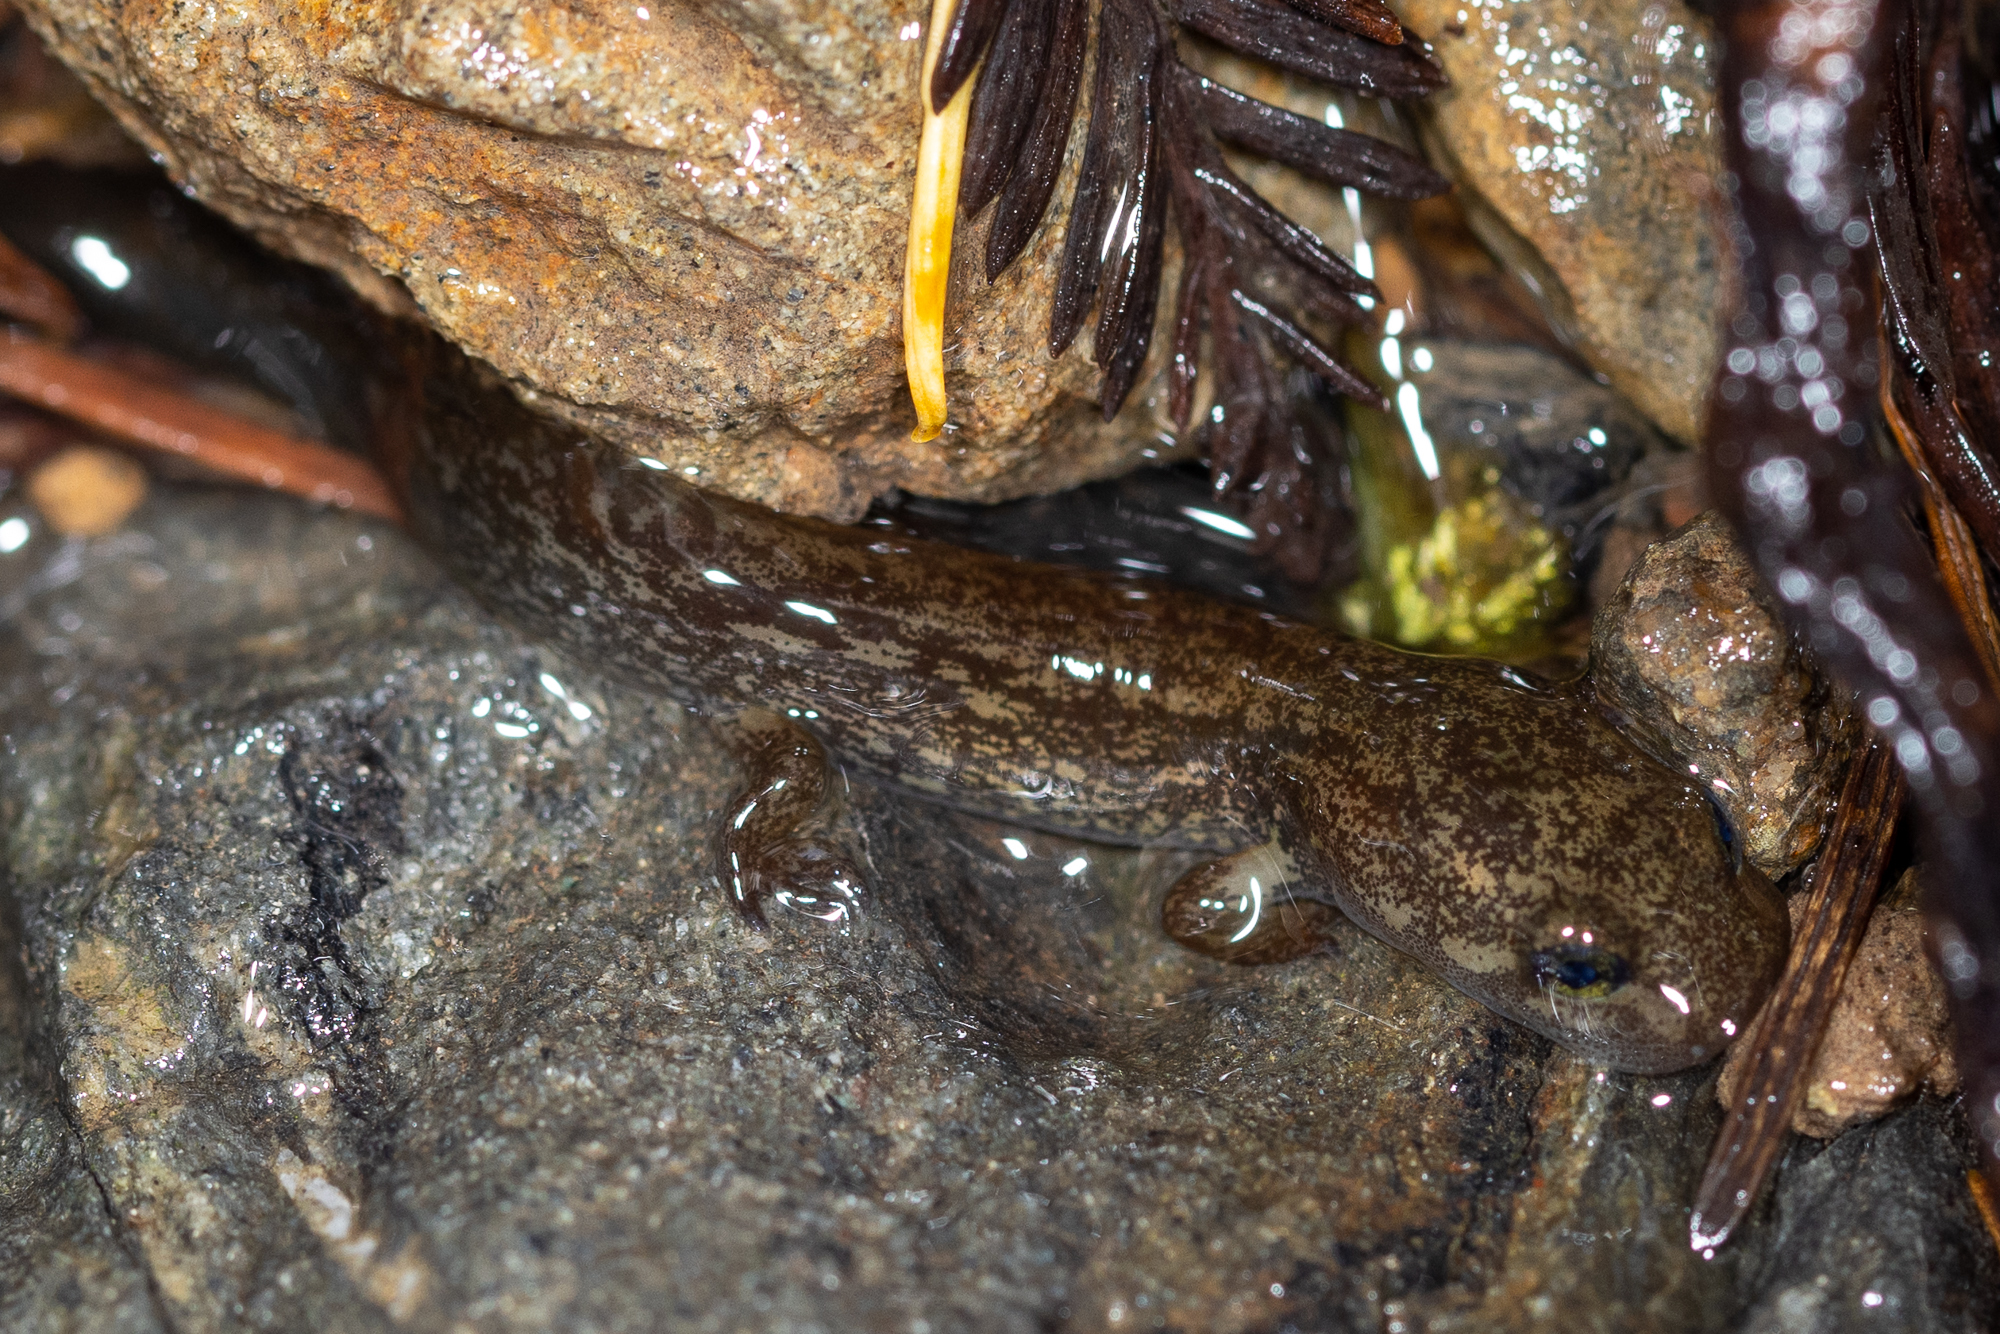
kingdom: Animalia
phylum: Chordata
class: Amphibia
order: Caudata
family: Ambystomatidae
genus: Dicamptodon
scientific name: Dicamptodon ensatus
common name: California giant salamander
